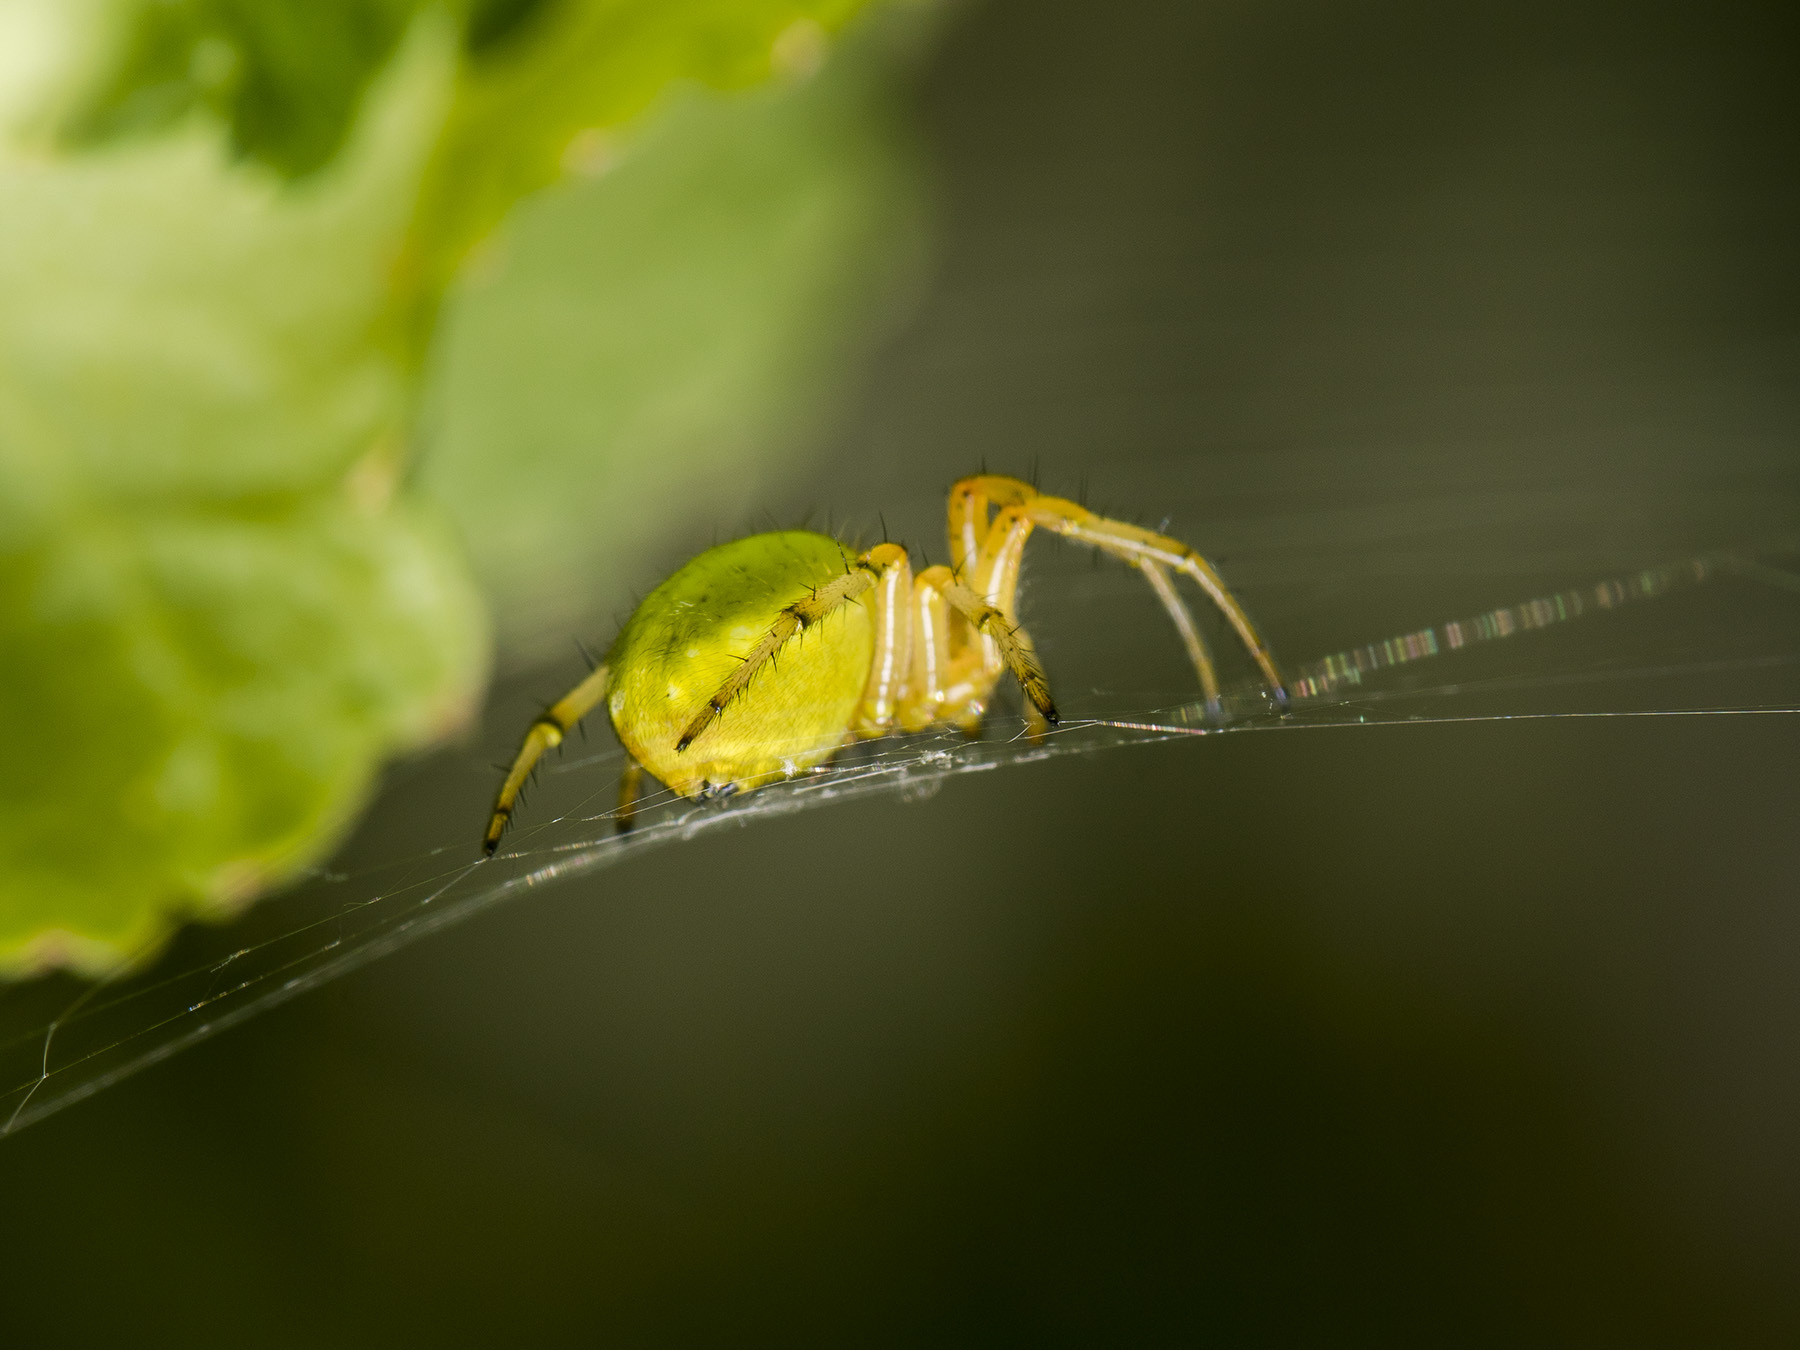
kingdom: Animalia
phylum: Arthropoda
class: Arachnida
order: Araneae
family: Araneidae
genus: Araniella
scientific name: Araniella displicata
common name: Sixspotted orb weaver
